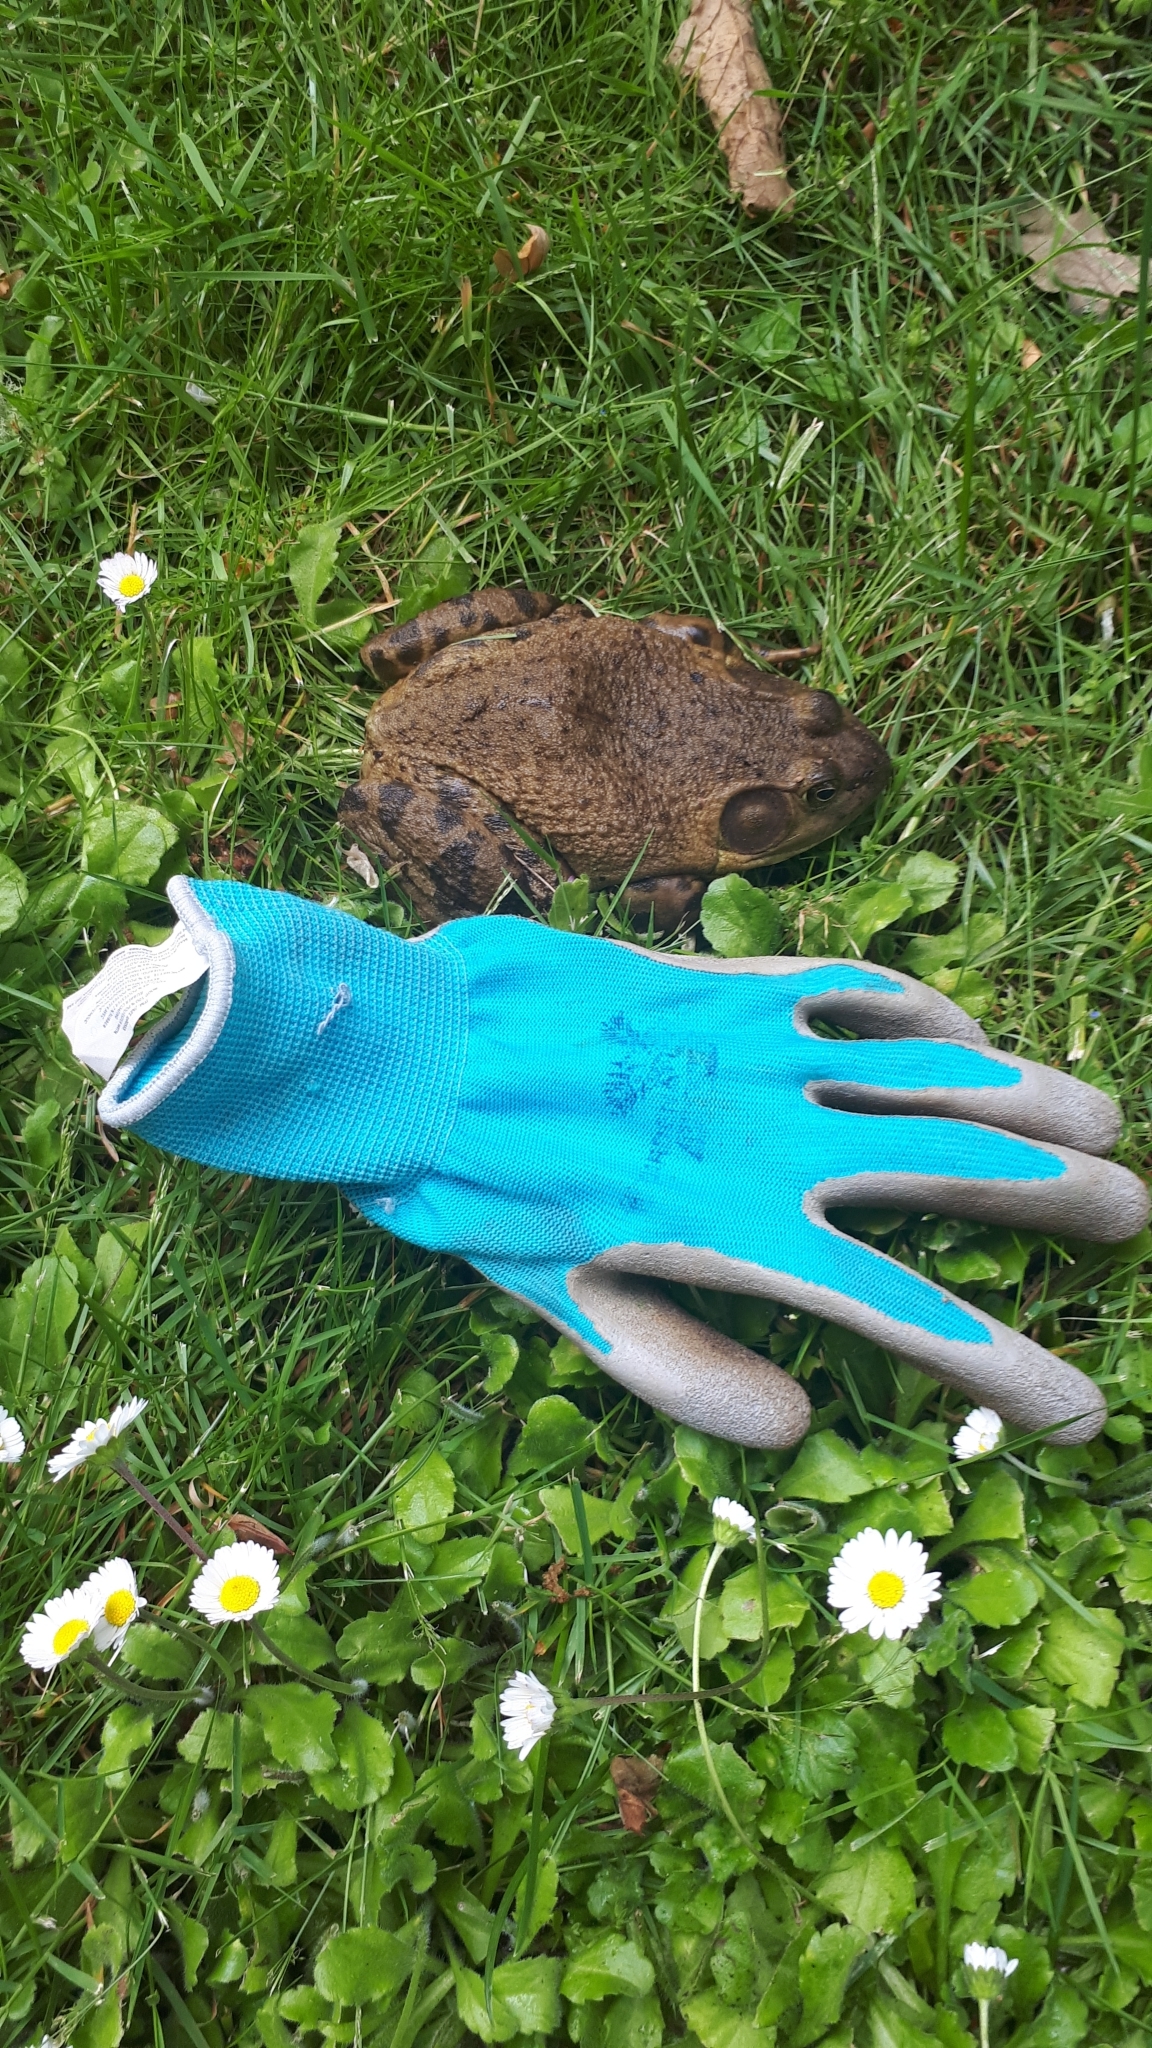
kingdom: Animalia
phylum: Chordata
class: Amphibia
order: Anura
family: Ranidae
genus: Lithobates
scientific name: Lithobates catesbeianus
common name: American bullfrog
